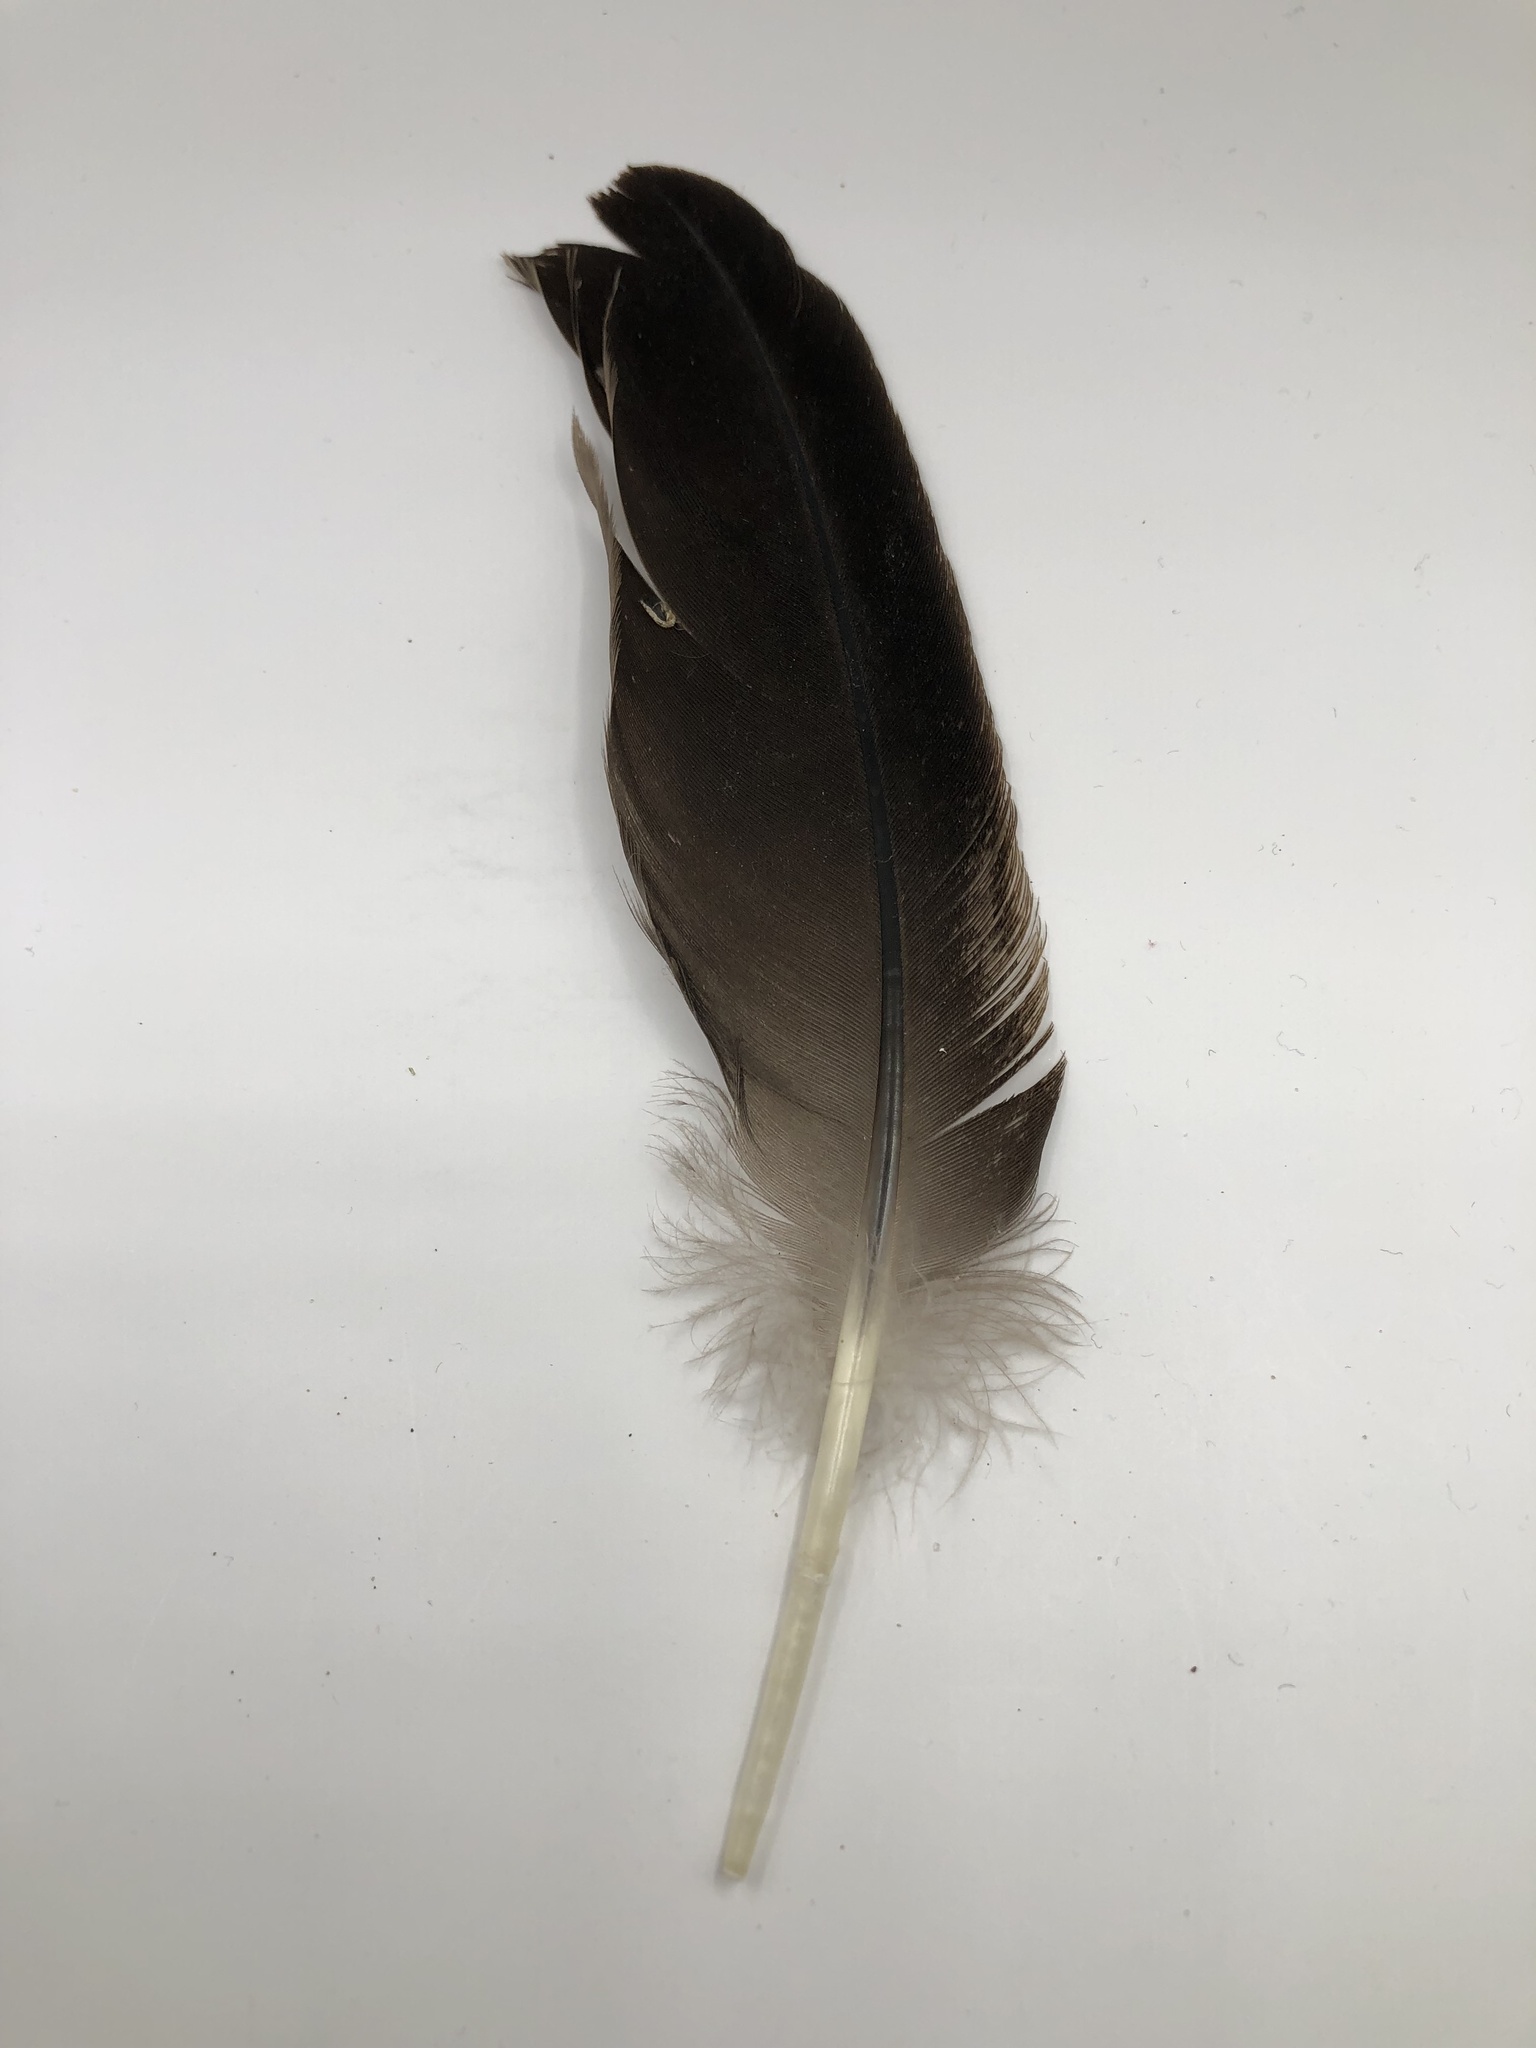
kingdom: Animalia
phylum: Chordata
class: Aves
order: Anseriformes
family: Anatidae
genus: Branta
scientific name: Branta canadensis
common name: Canada goose
